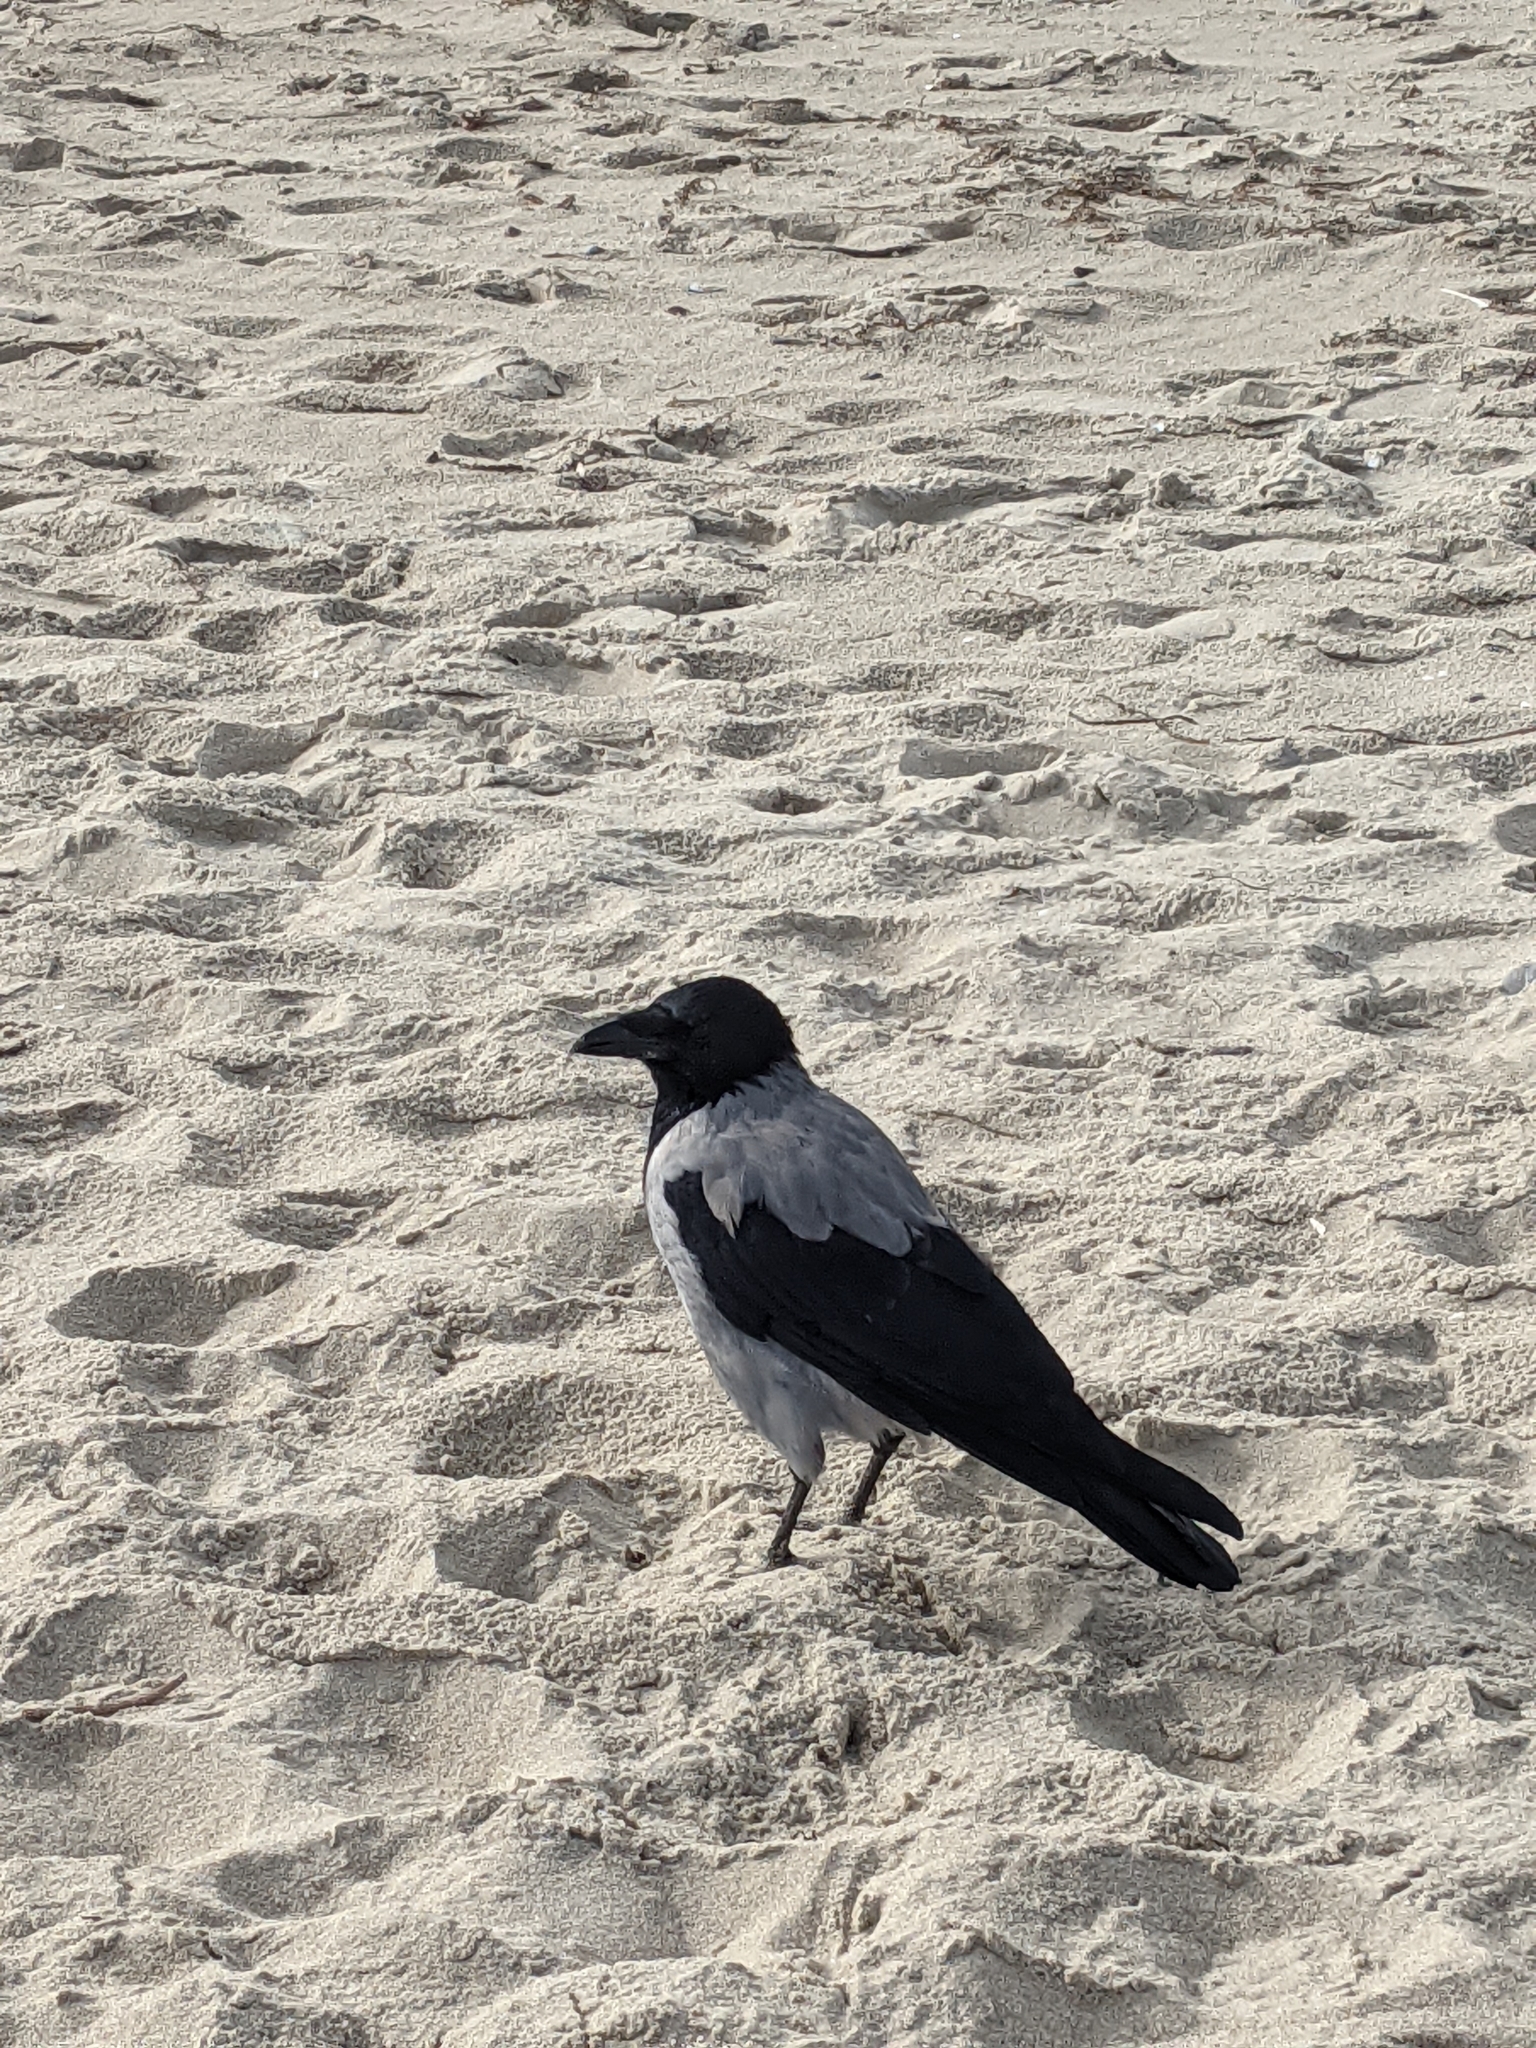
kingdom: Animalia
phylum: Chordata
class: Aves
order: Passeriformes
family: Corvidae
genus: Corvus
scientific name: Corvus cornix
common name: Hooded crow
